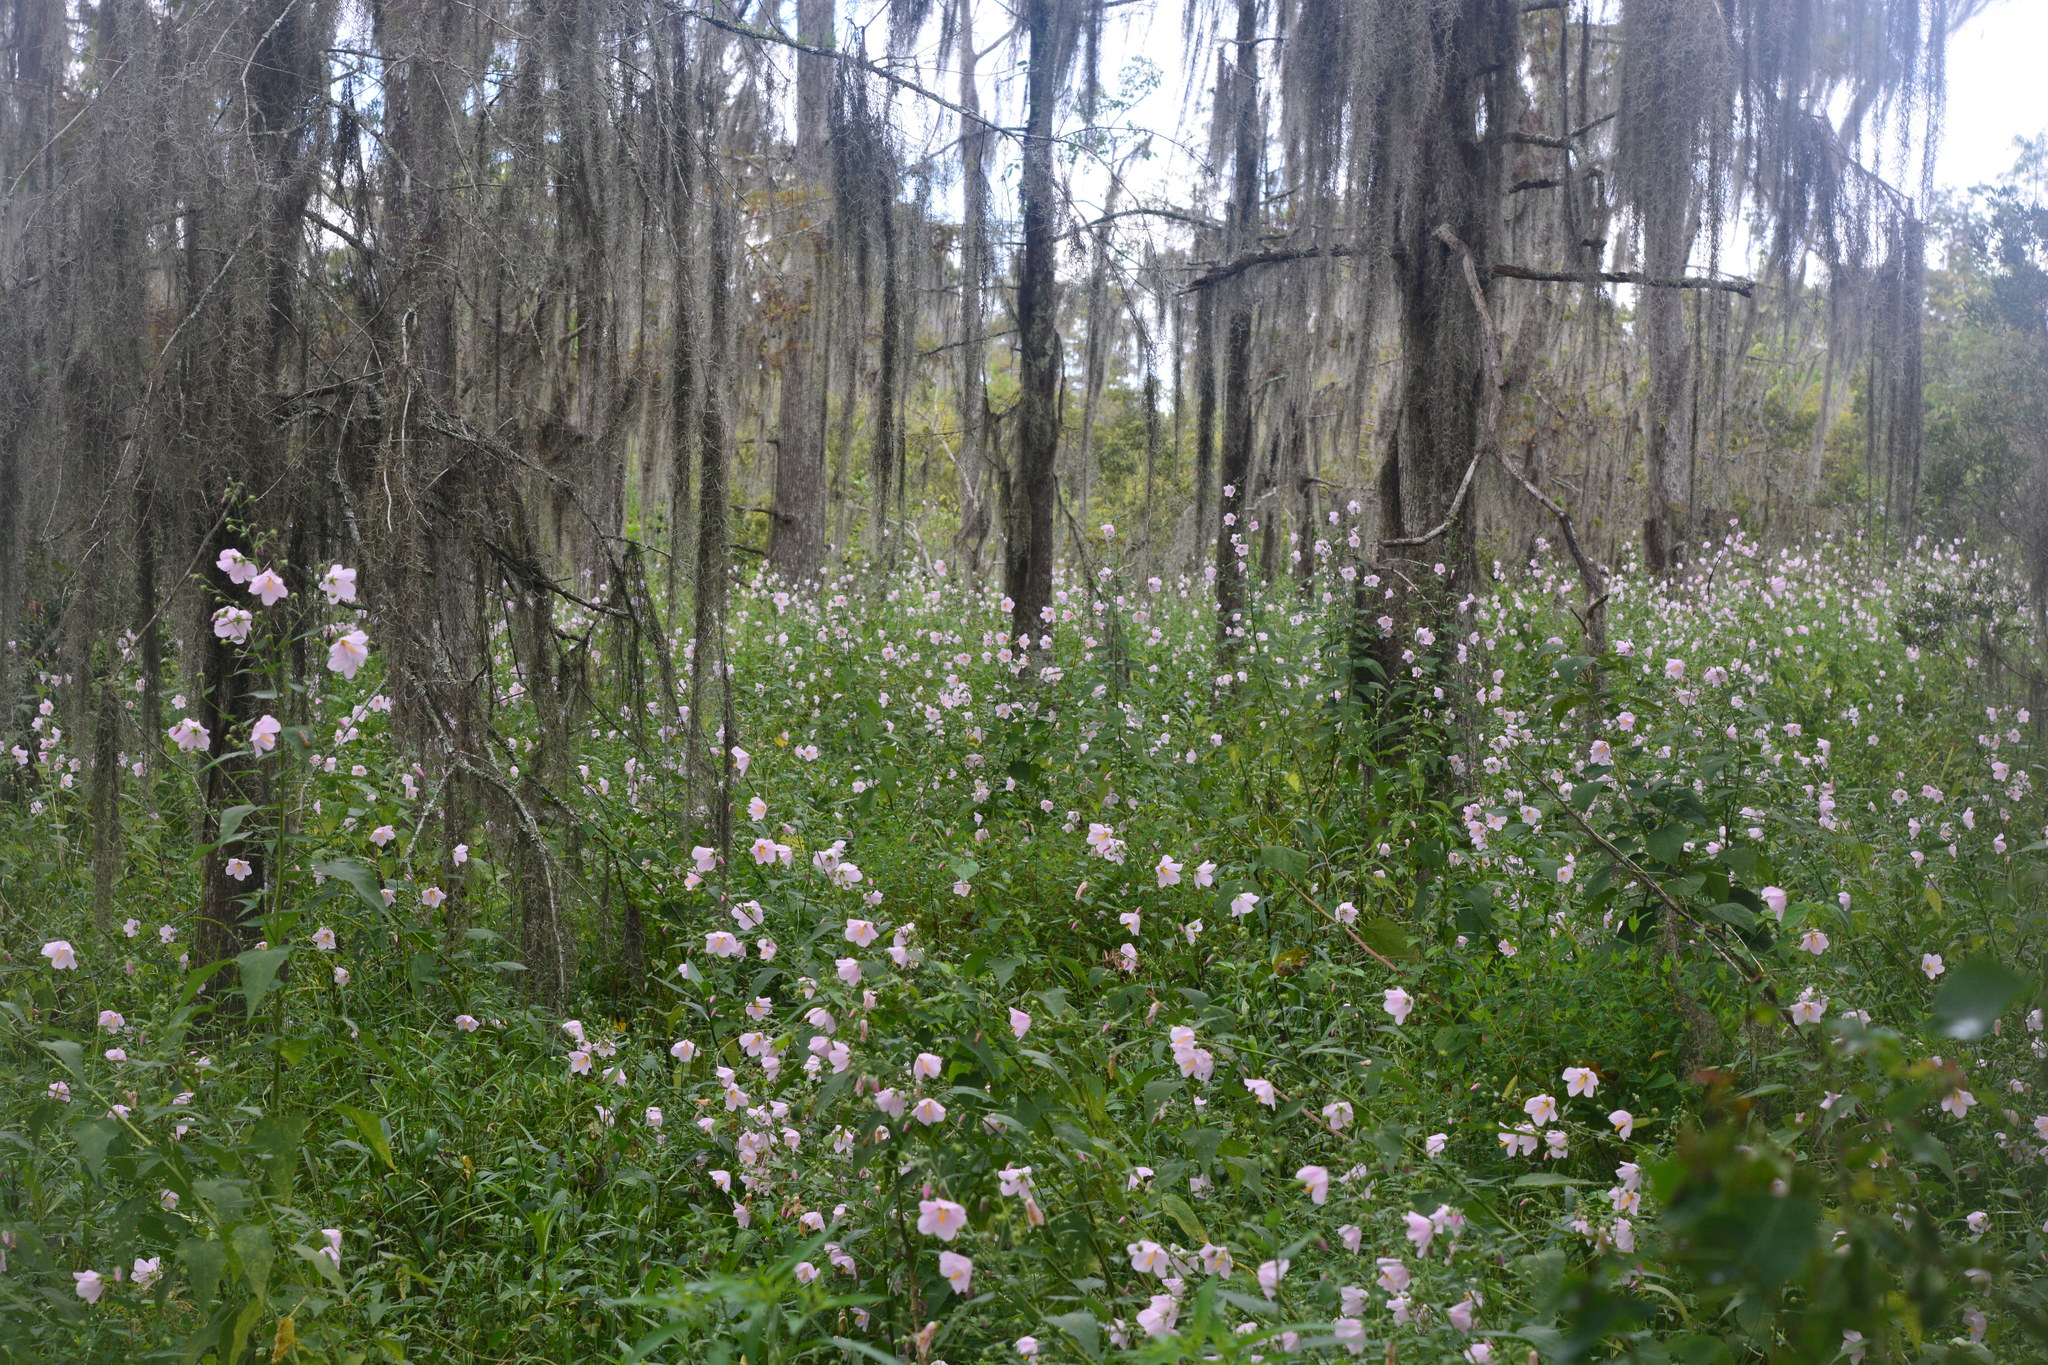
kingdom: Plantae
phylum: Tracheophyta
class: Magnoliopsida
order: Malvales
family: Malvaceae
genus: Kosteletzkya
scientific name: Kosteletzkya pentacarpos
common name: Virginia saltmarsh mallow
